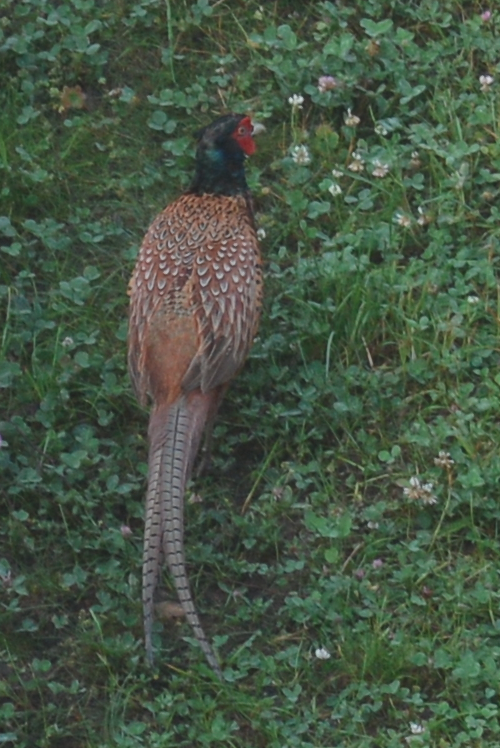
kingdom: Animalia
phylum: Chordata
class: Aves
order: Galliformes
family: Phasianidae
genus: Phasianus
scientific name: Phasianus colchicus
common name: Common pheasant
